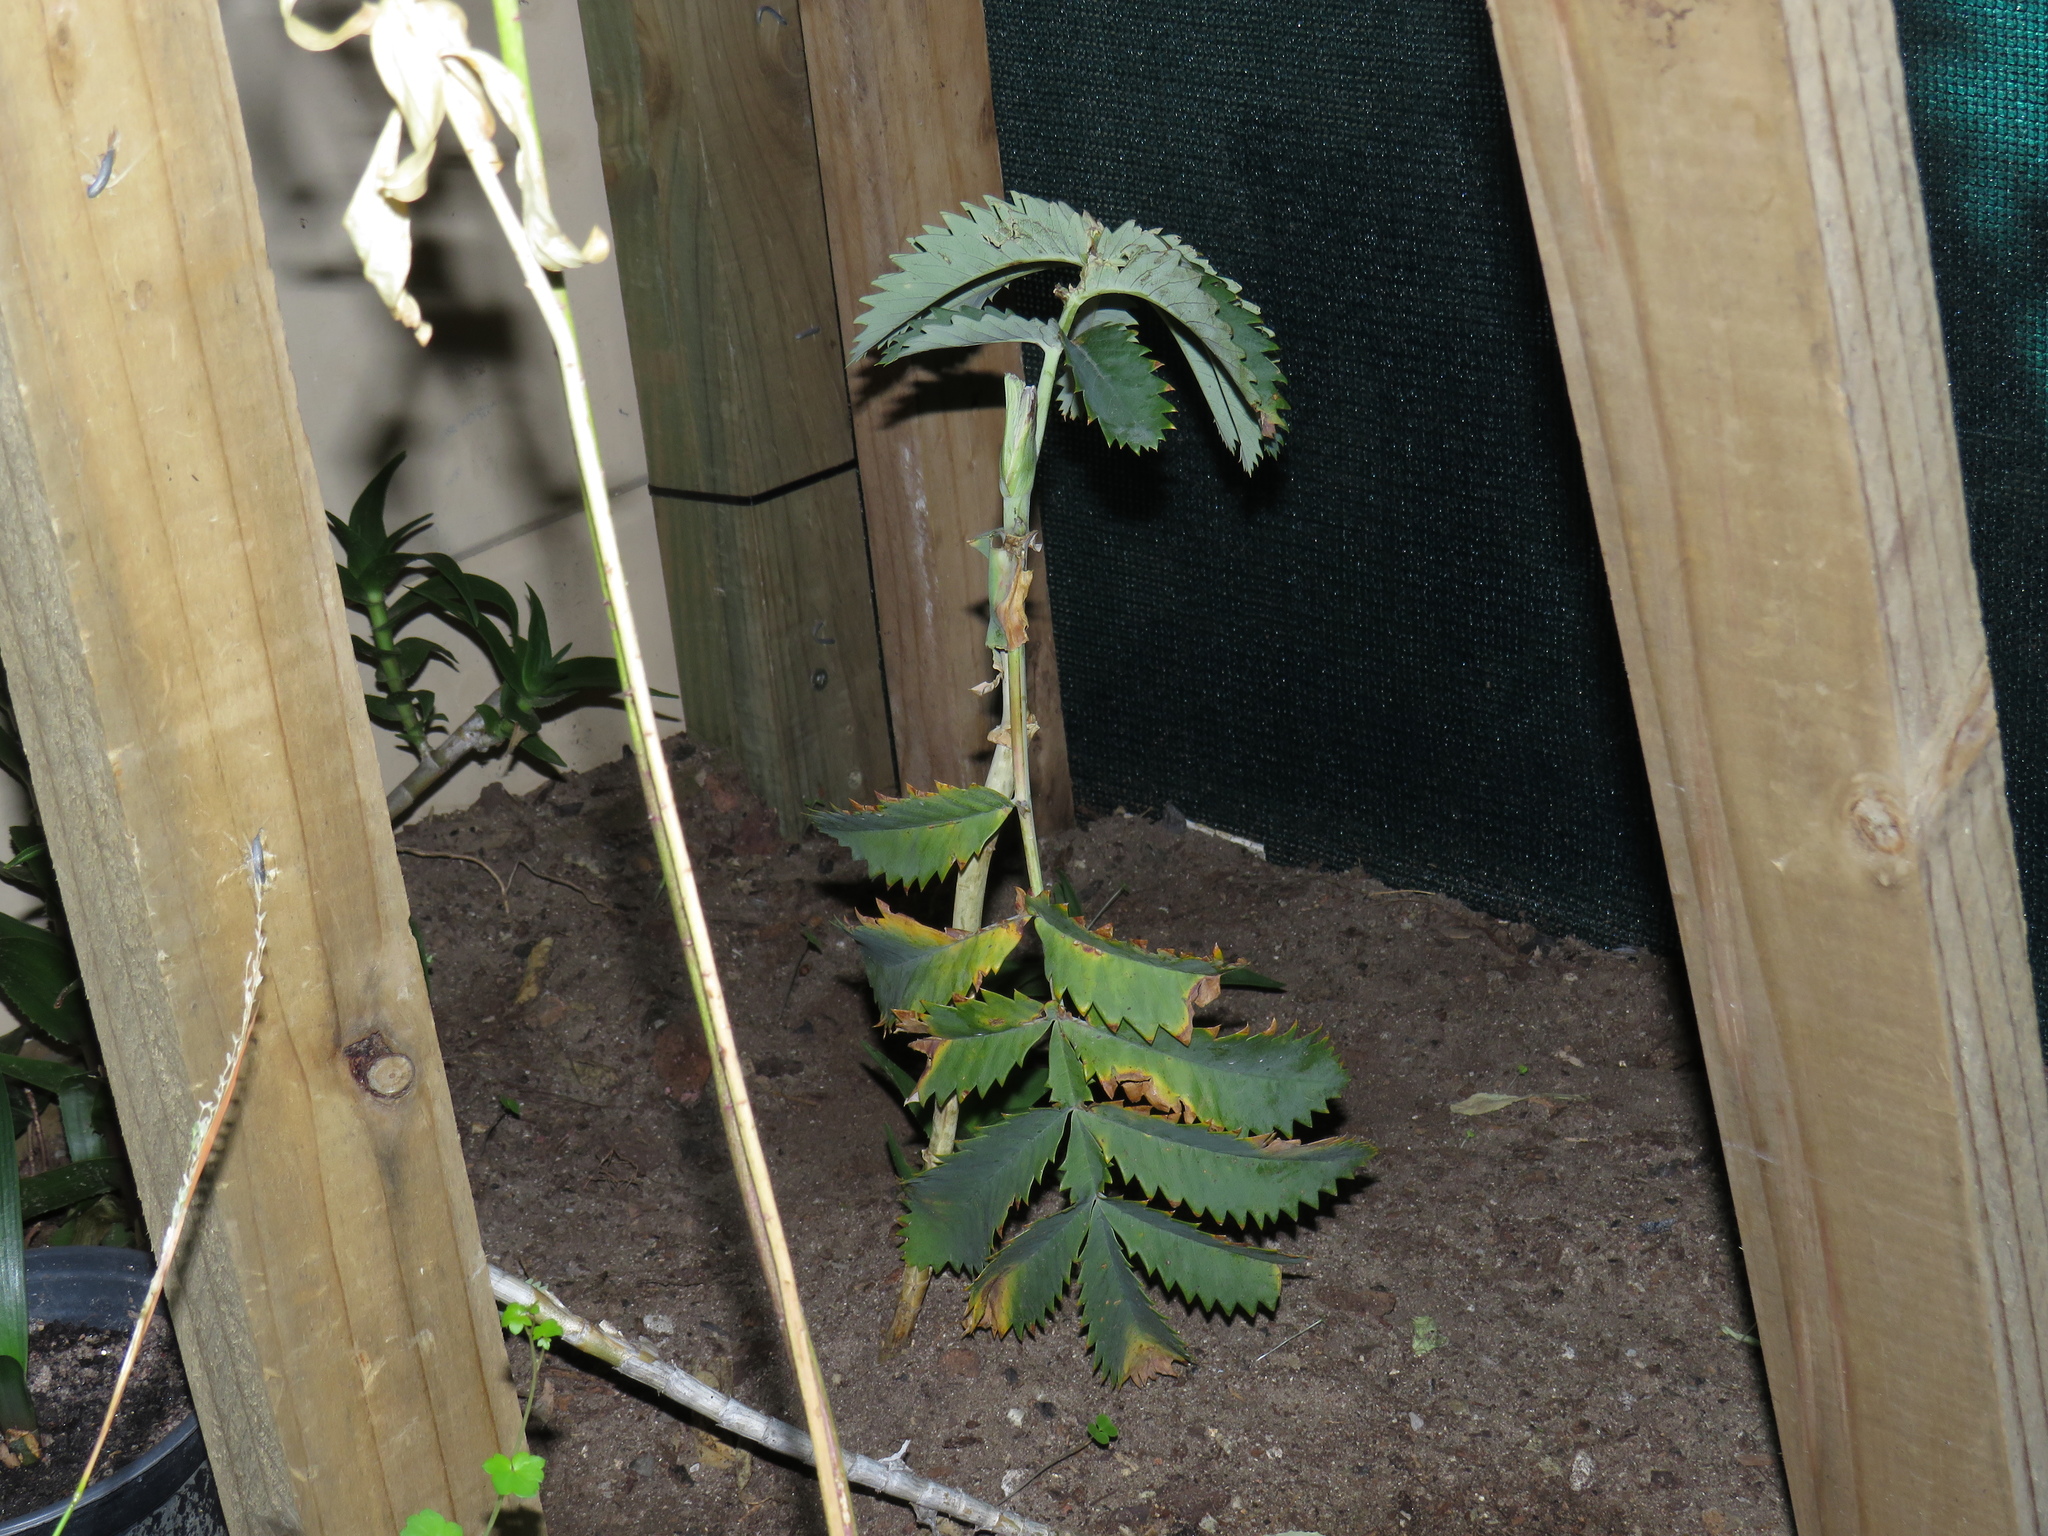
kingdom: Plantae
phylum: Tracheophyta
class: Magnoliopsida
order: Geraniales
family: Melianthaceae
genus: Melianthus
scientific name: Melianthus major
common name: Honey-flower
